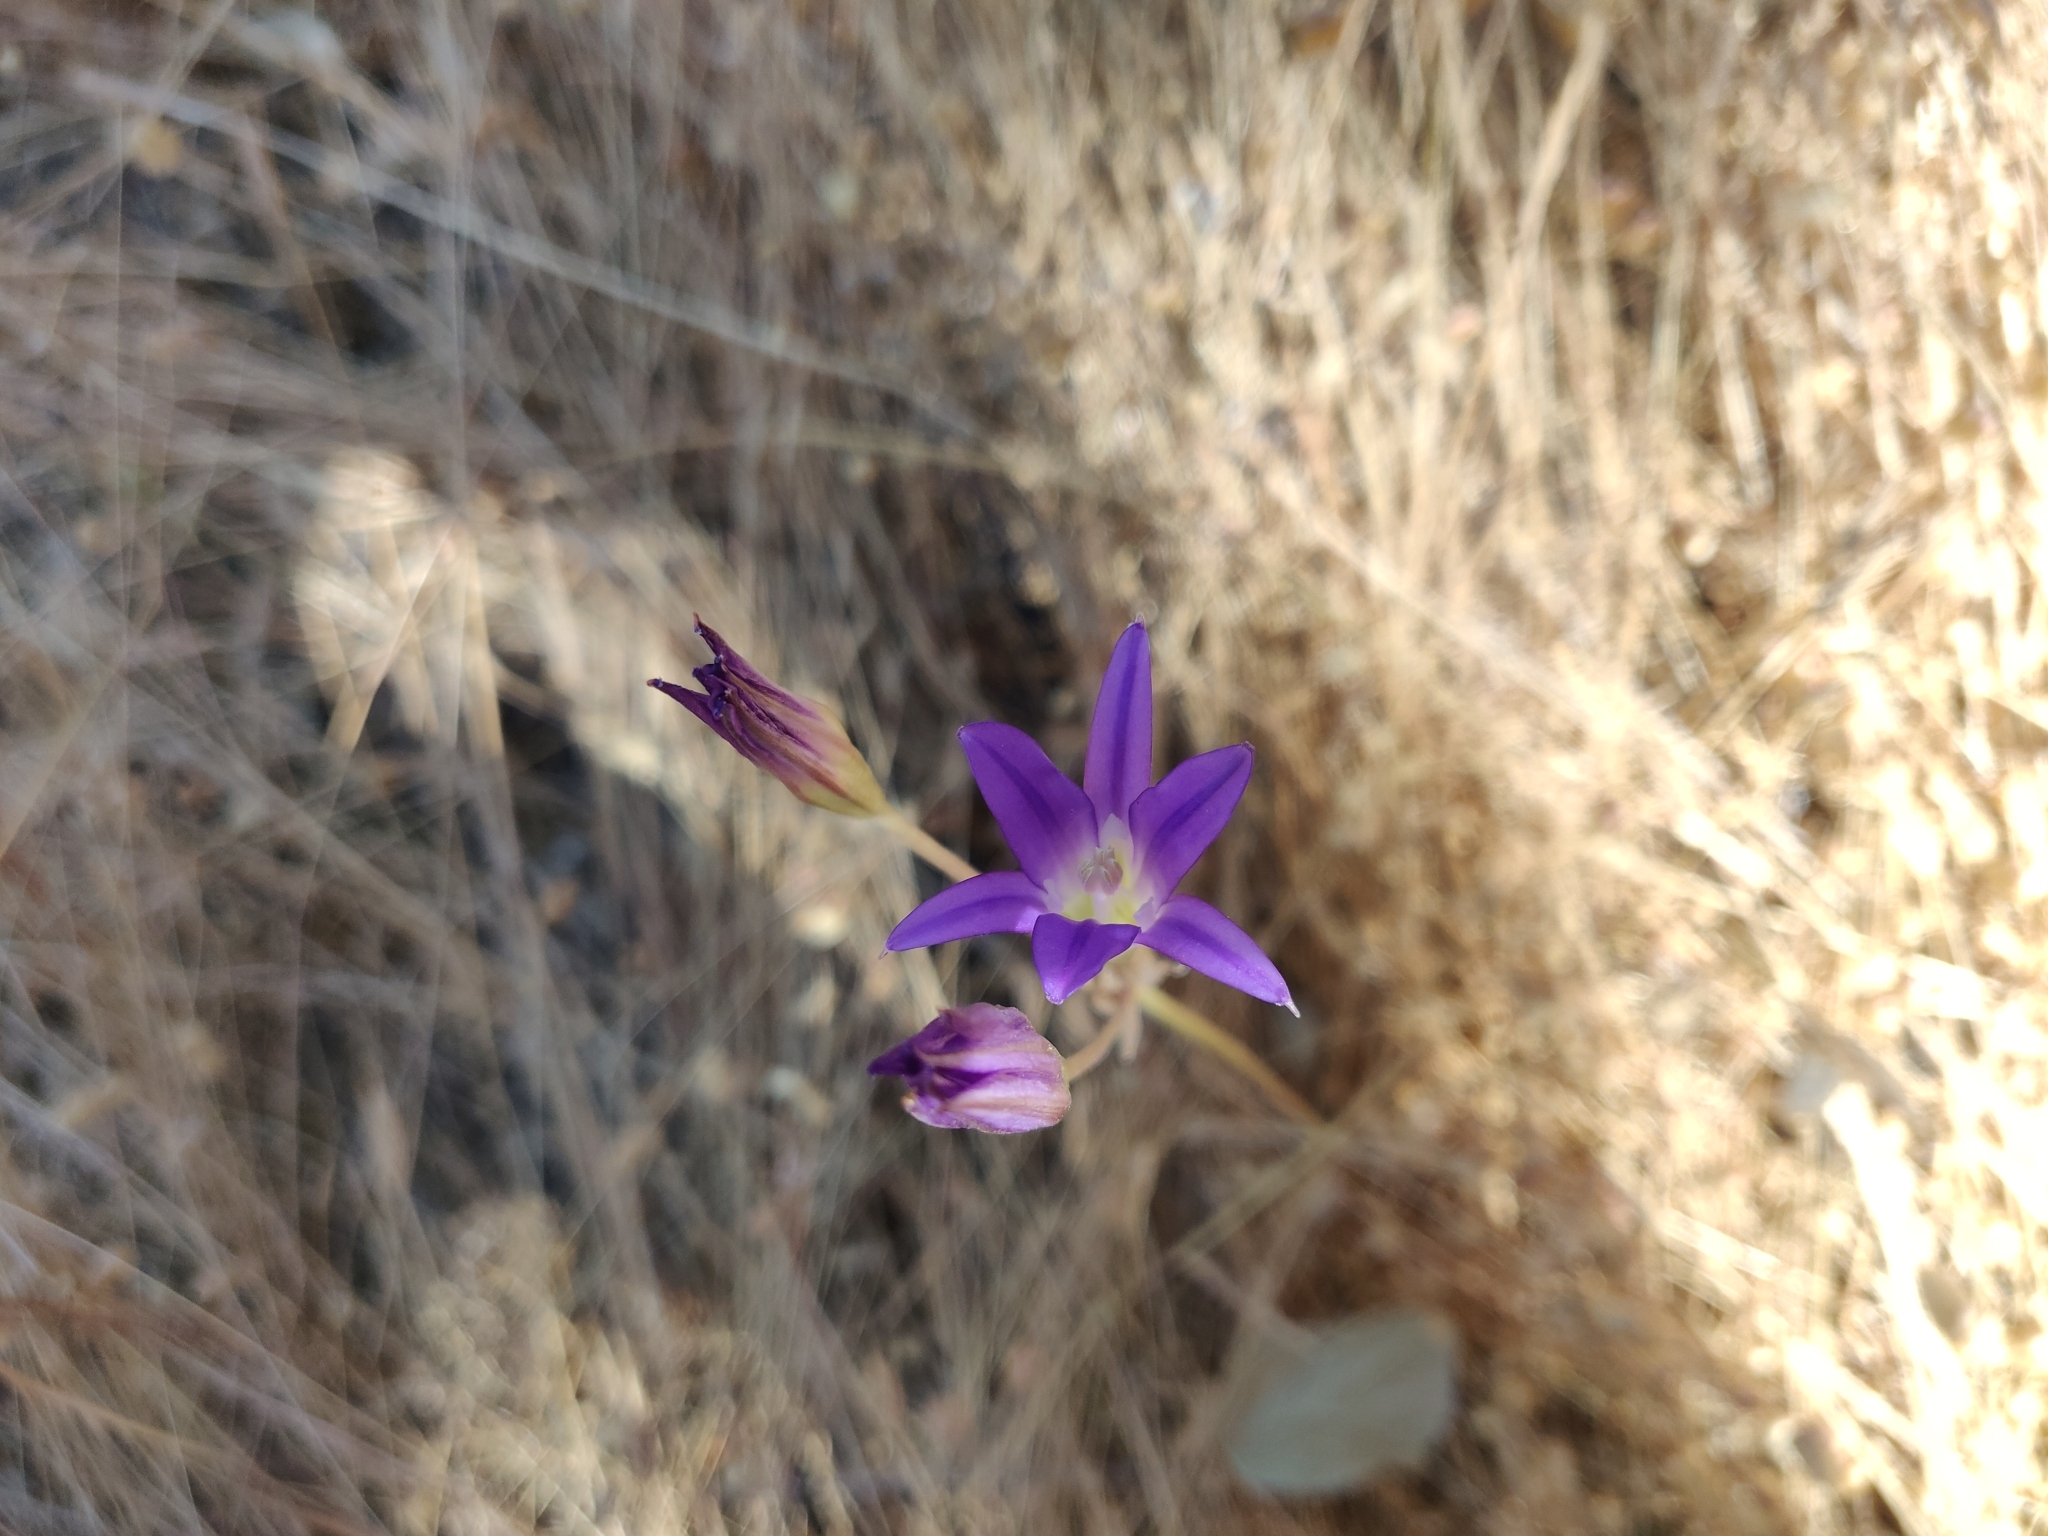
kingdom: Plantae
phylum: Tracheophyta
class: Liliopsida
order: Asparagales
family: Asparagaceae
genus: Brodiaea
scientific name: Brodiaea elegans
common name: Elegant cluster-lily
